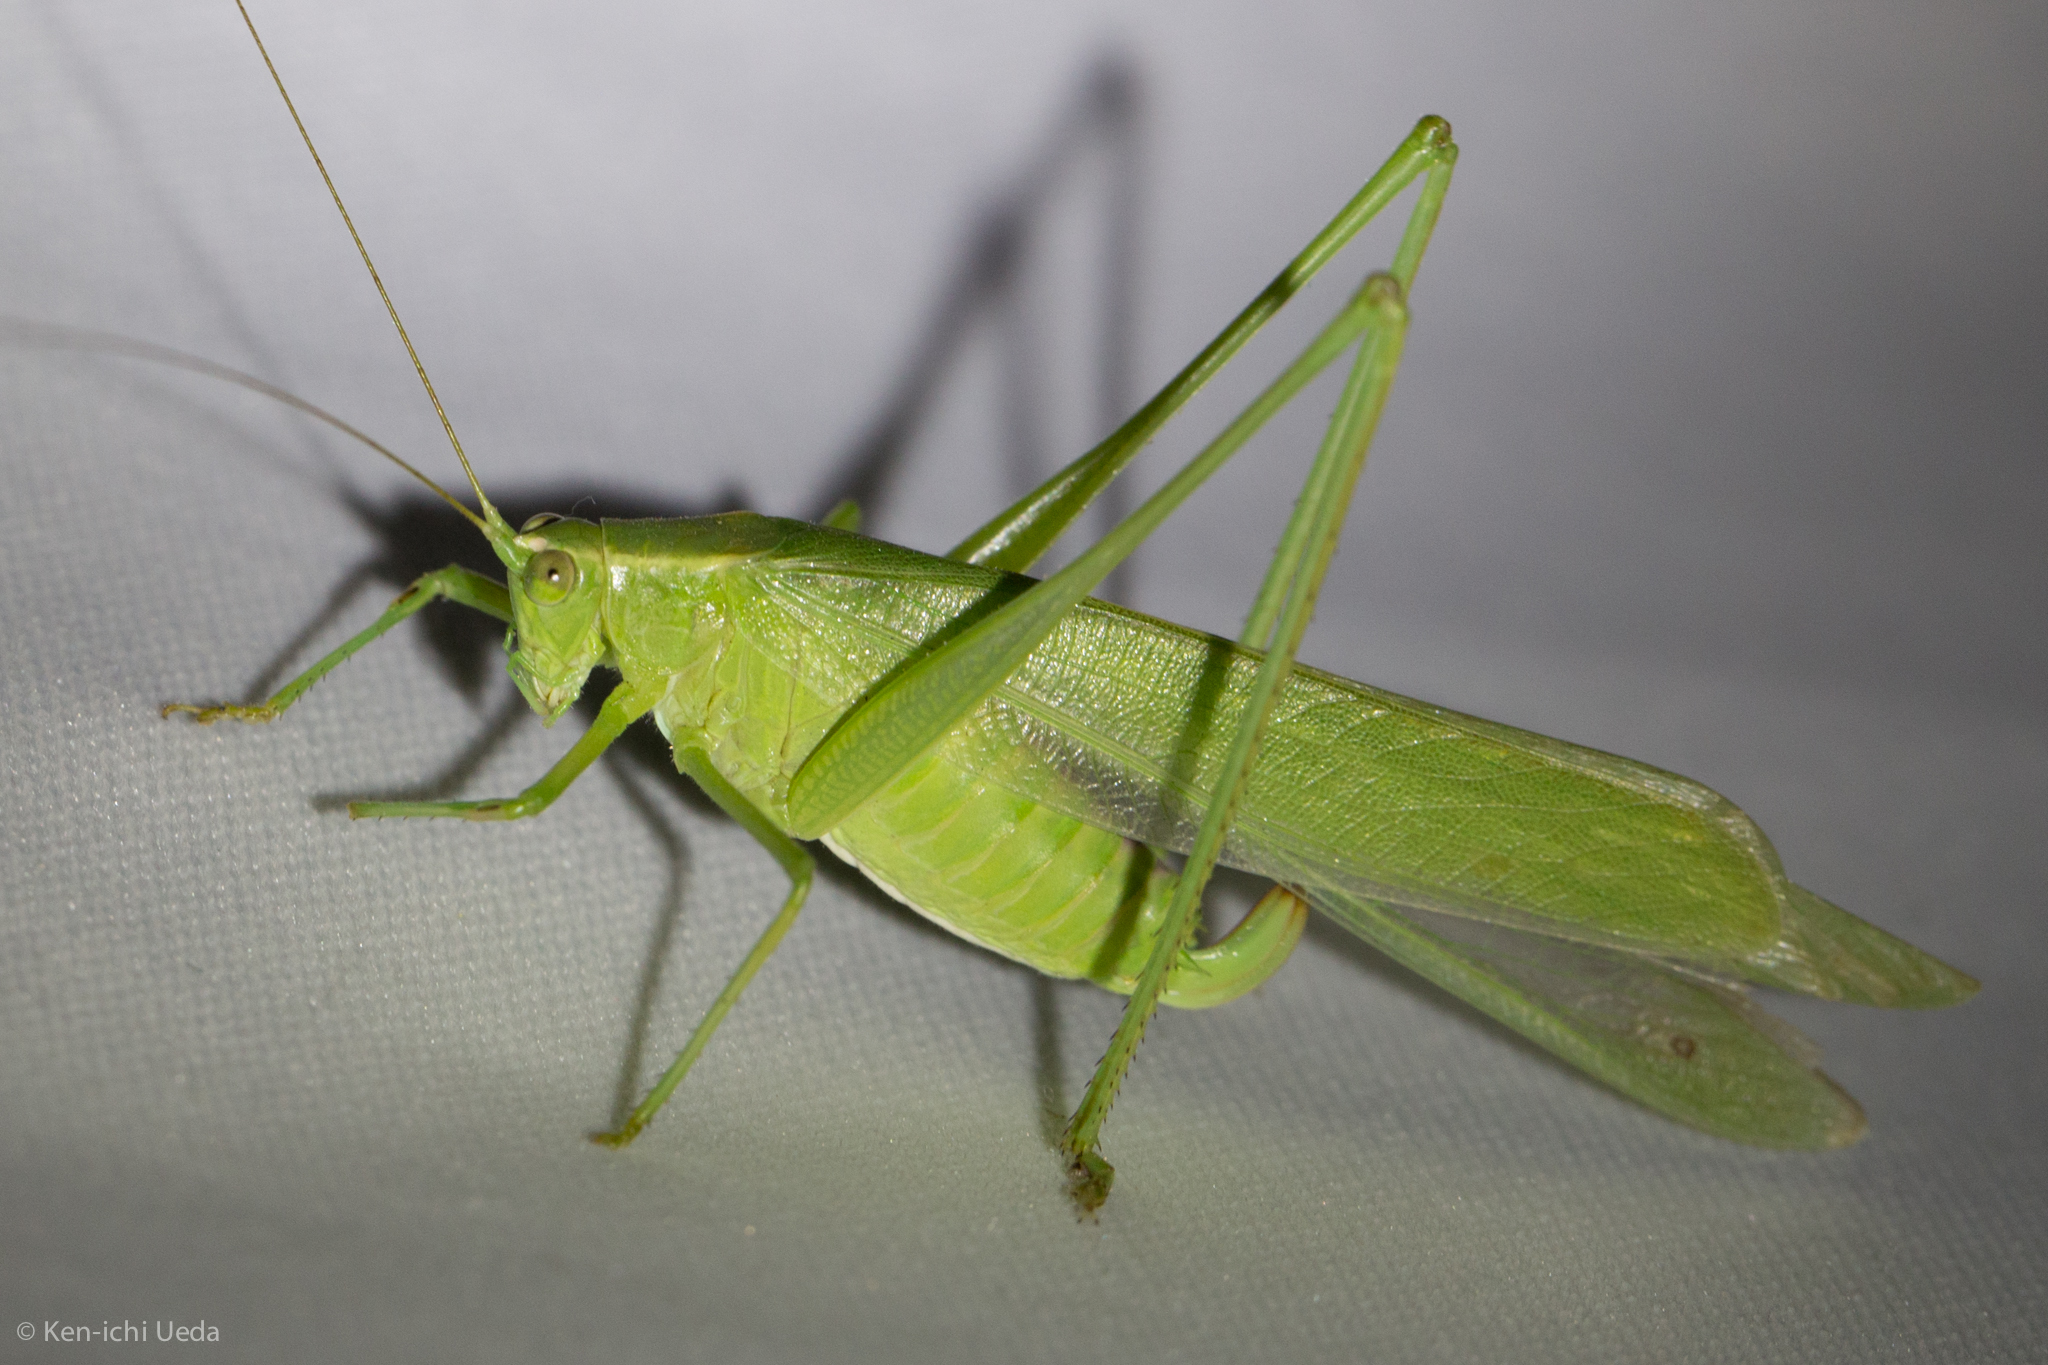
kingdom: Animalia
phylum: Arthropoda
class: Insecta
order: Orthoptera
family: Tettigoniidae
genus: Scudderia
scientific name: Scudderia mexicana
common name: Mexican bush katydid
